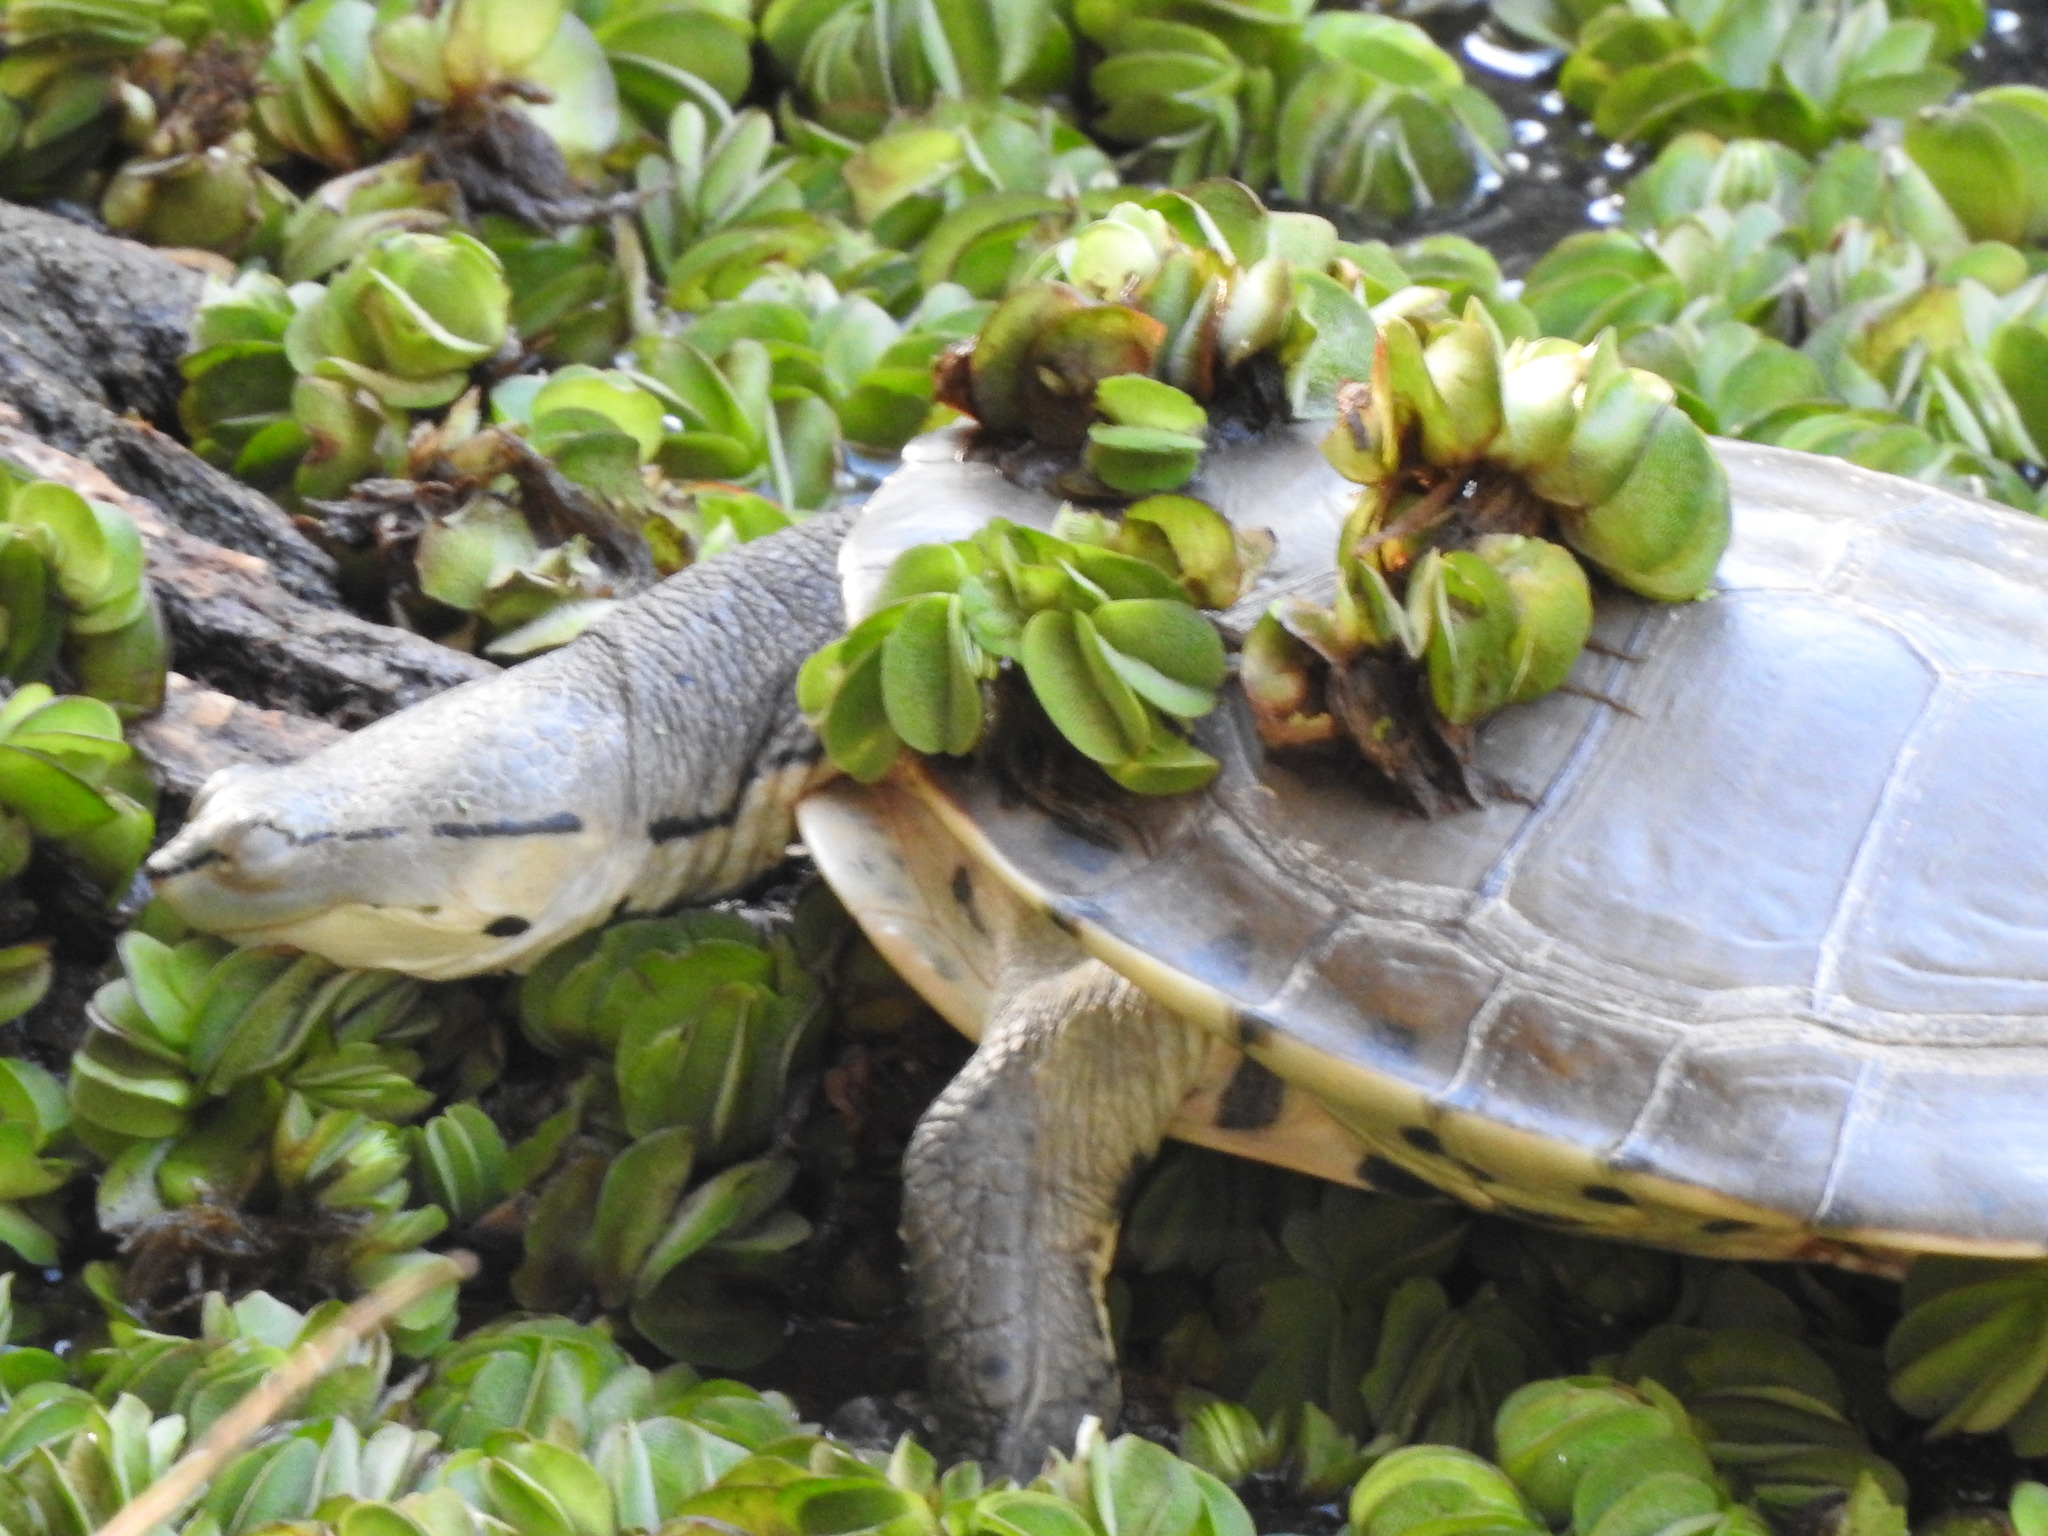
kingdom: Animalia
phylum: Chordata
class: Testudines
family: Chelidae
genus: Phrynops
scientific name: Phrynops hilarii
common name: Side-necked turtle of saint hillaire
